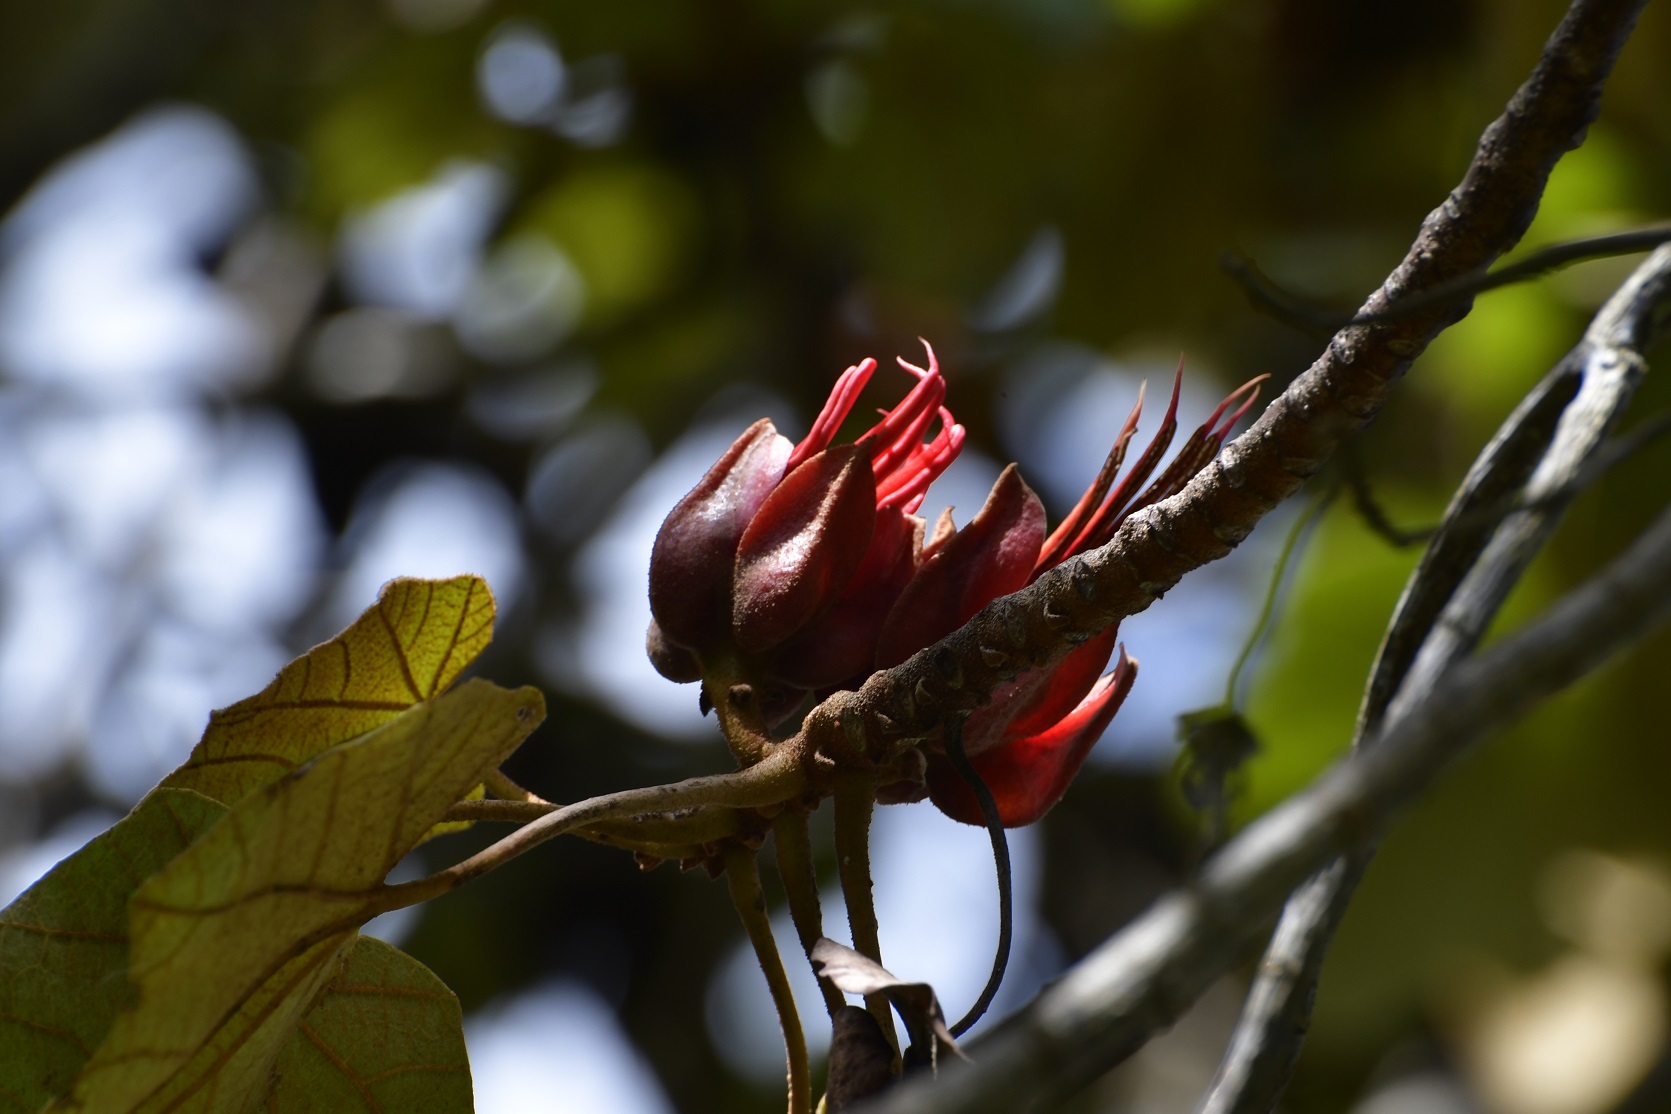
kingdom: Plantae
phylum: Tracheophyta
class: Magnoliopsida
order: Malvales
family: Malvaceae
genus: Chiranthodendron
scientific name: Chiranthodendron pentadactylon
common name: Mexican-hat-plant
